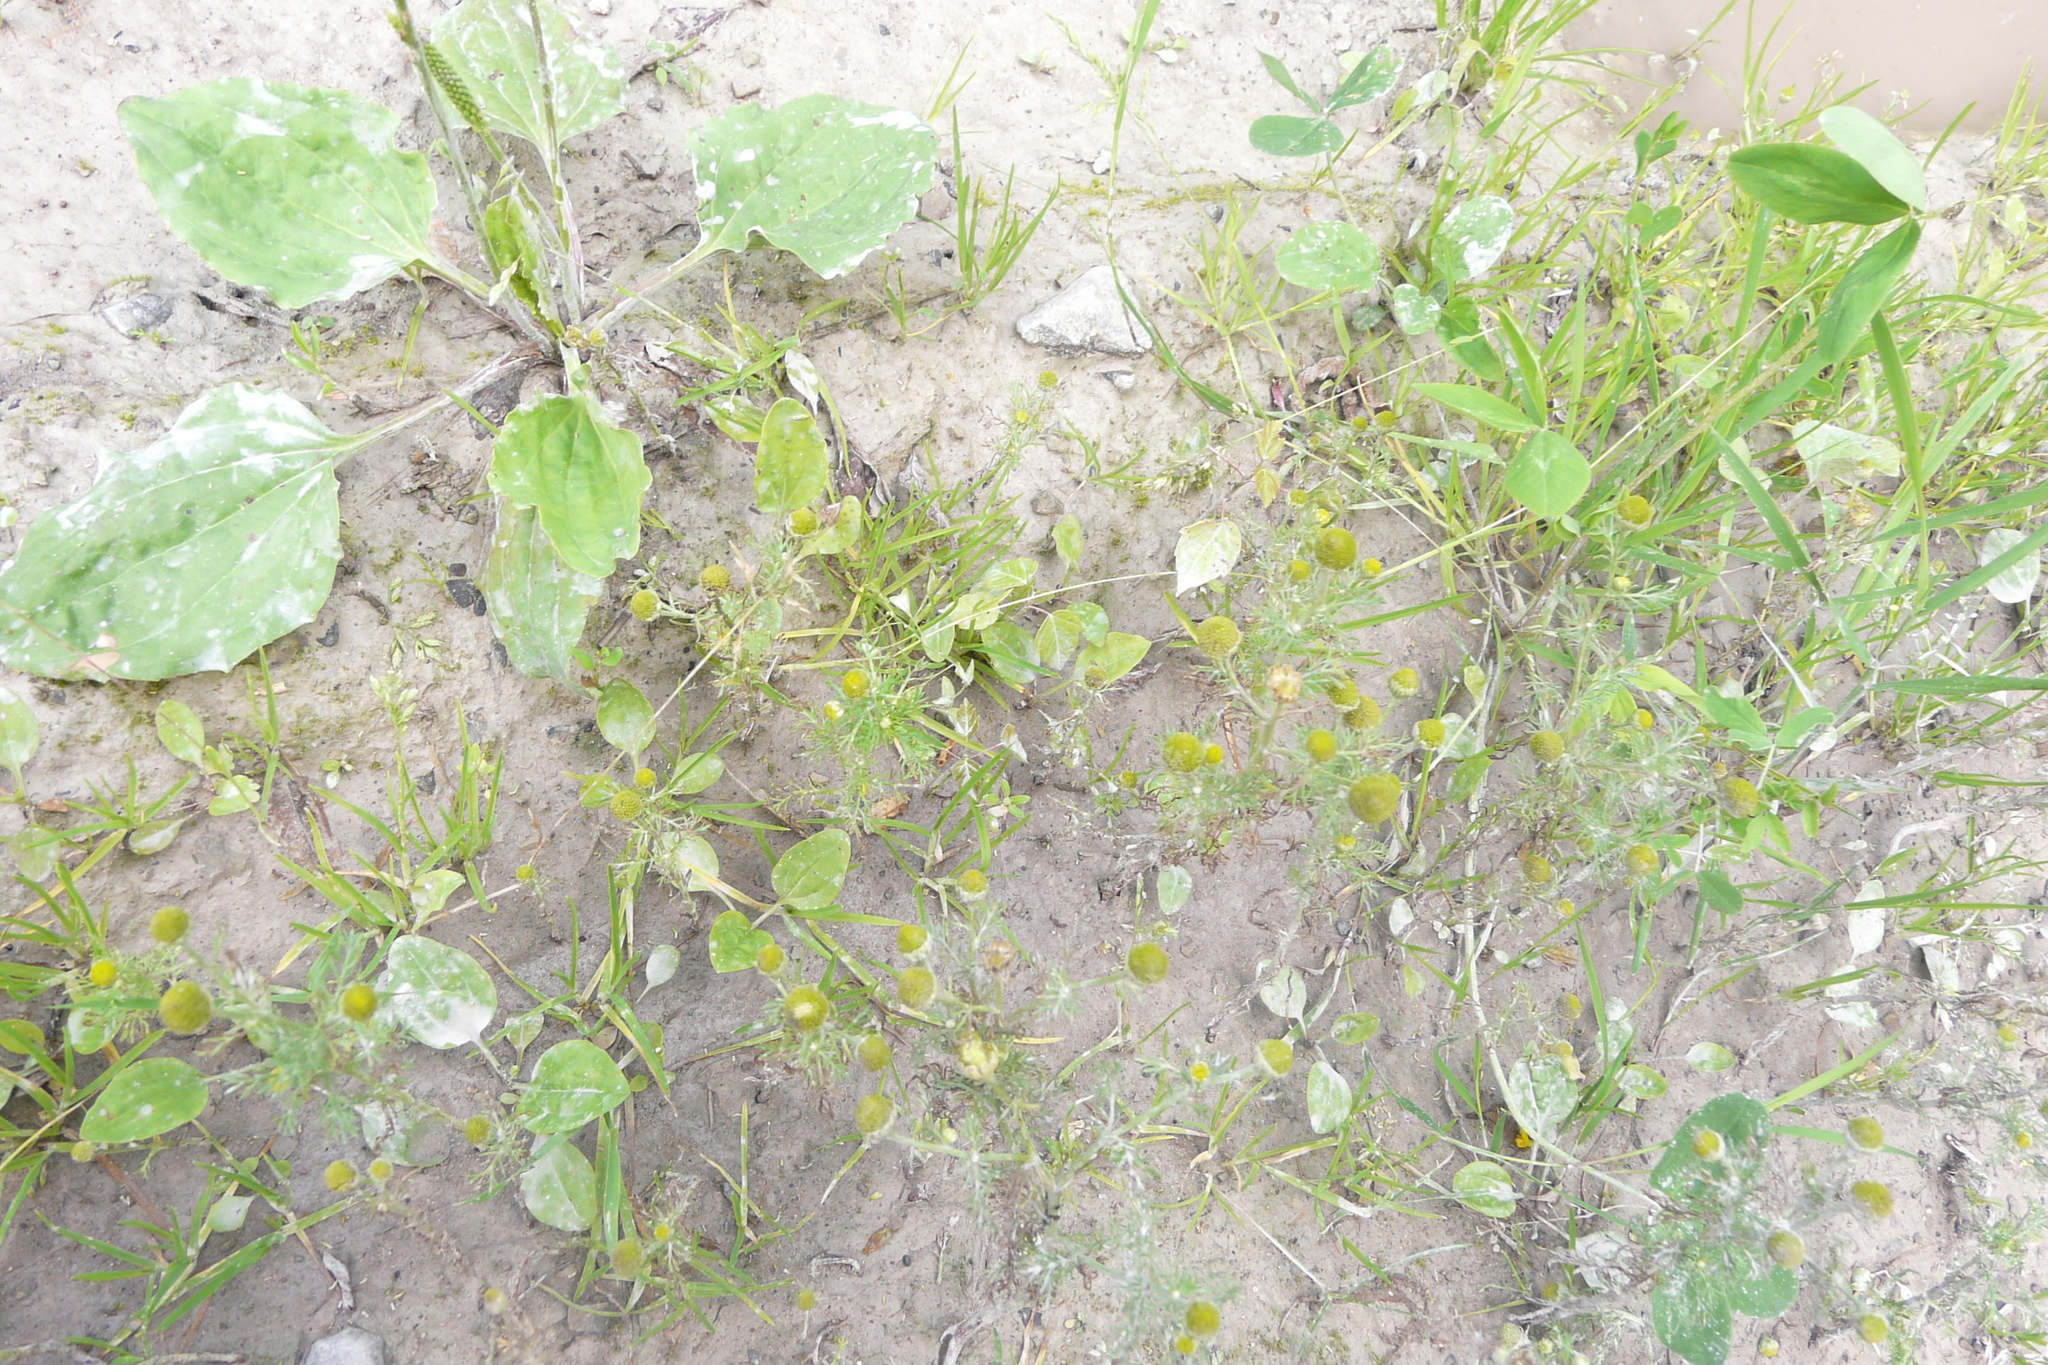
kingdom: Plantae
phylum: Tracheophyta
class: Magnoliopsida
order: Asterales
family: Asteraceae
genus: Matricaria
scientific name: Matricaria discoidea
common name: Disc mayweed
